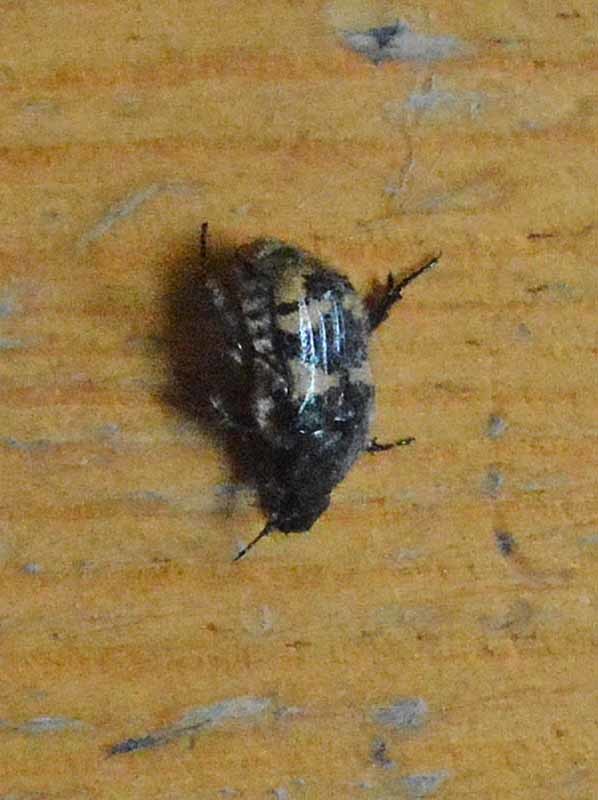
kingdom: Animalia
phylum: Arthropoda
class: Insecta
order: Coleoptera
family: Scarabaeidae
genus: Euphoria
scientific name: Euphoria basalis
